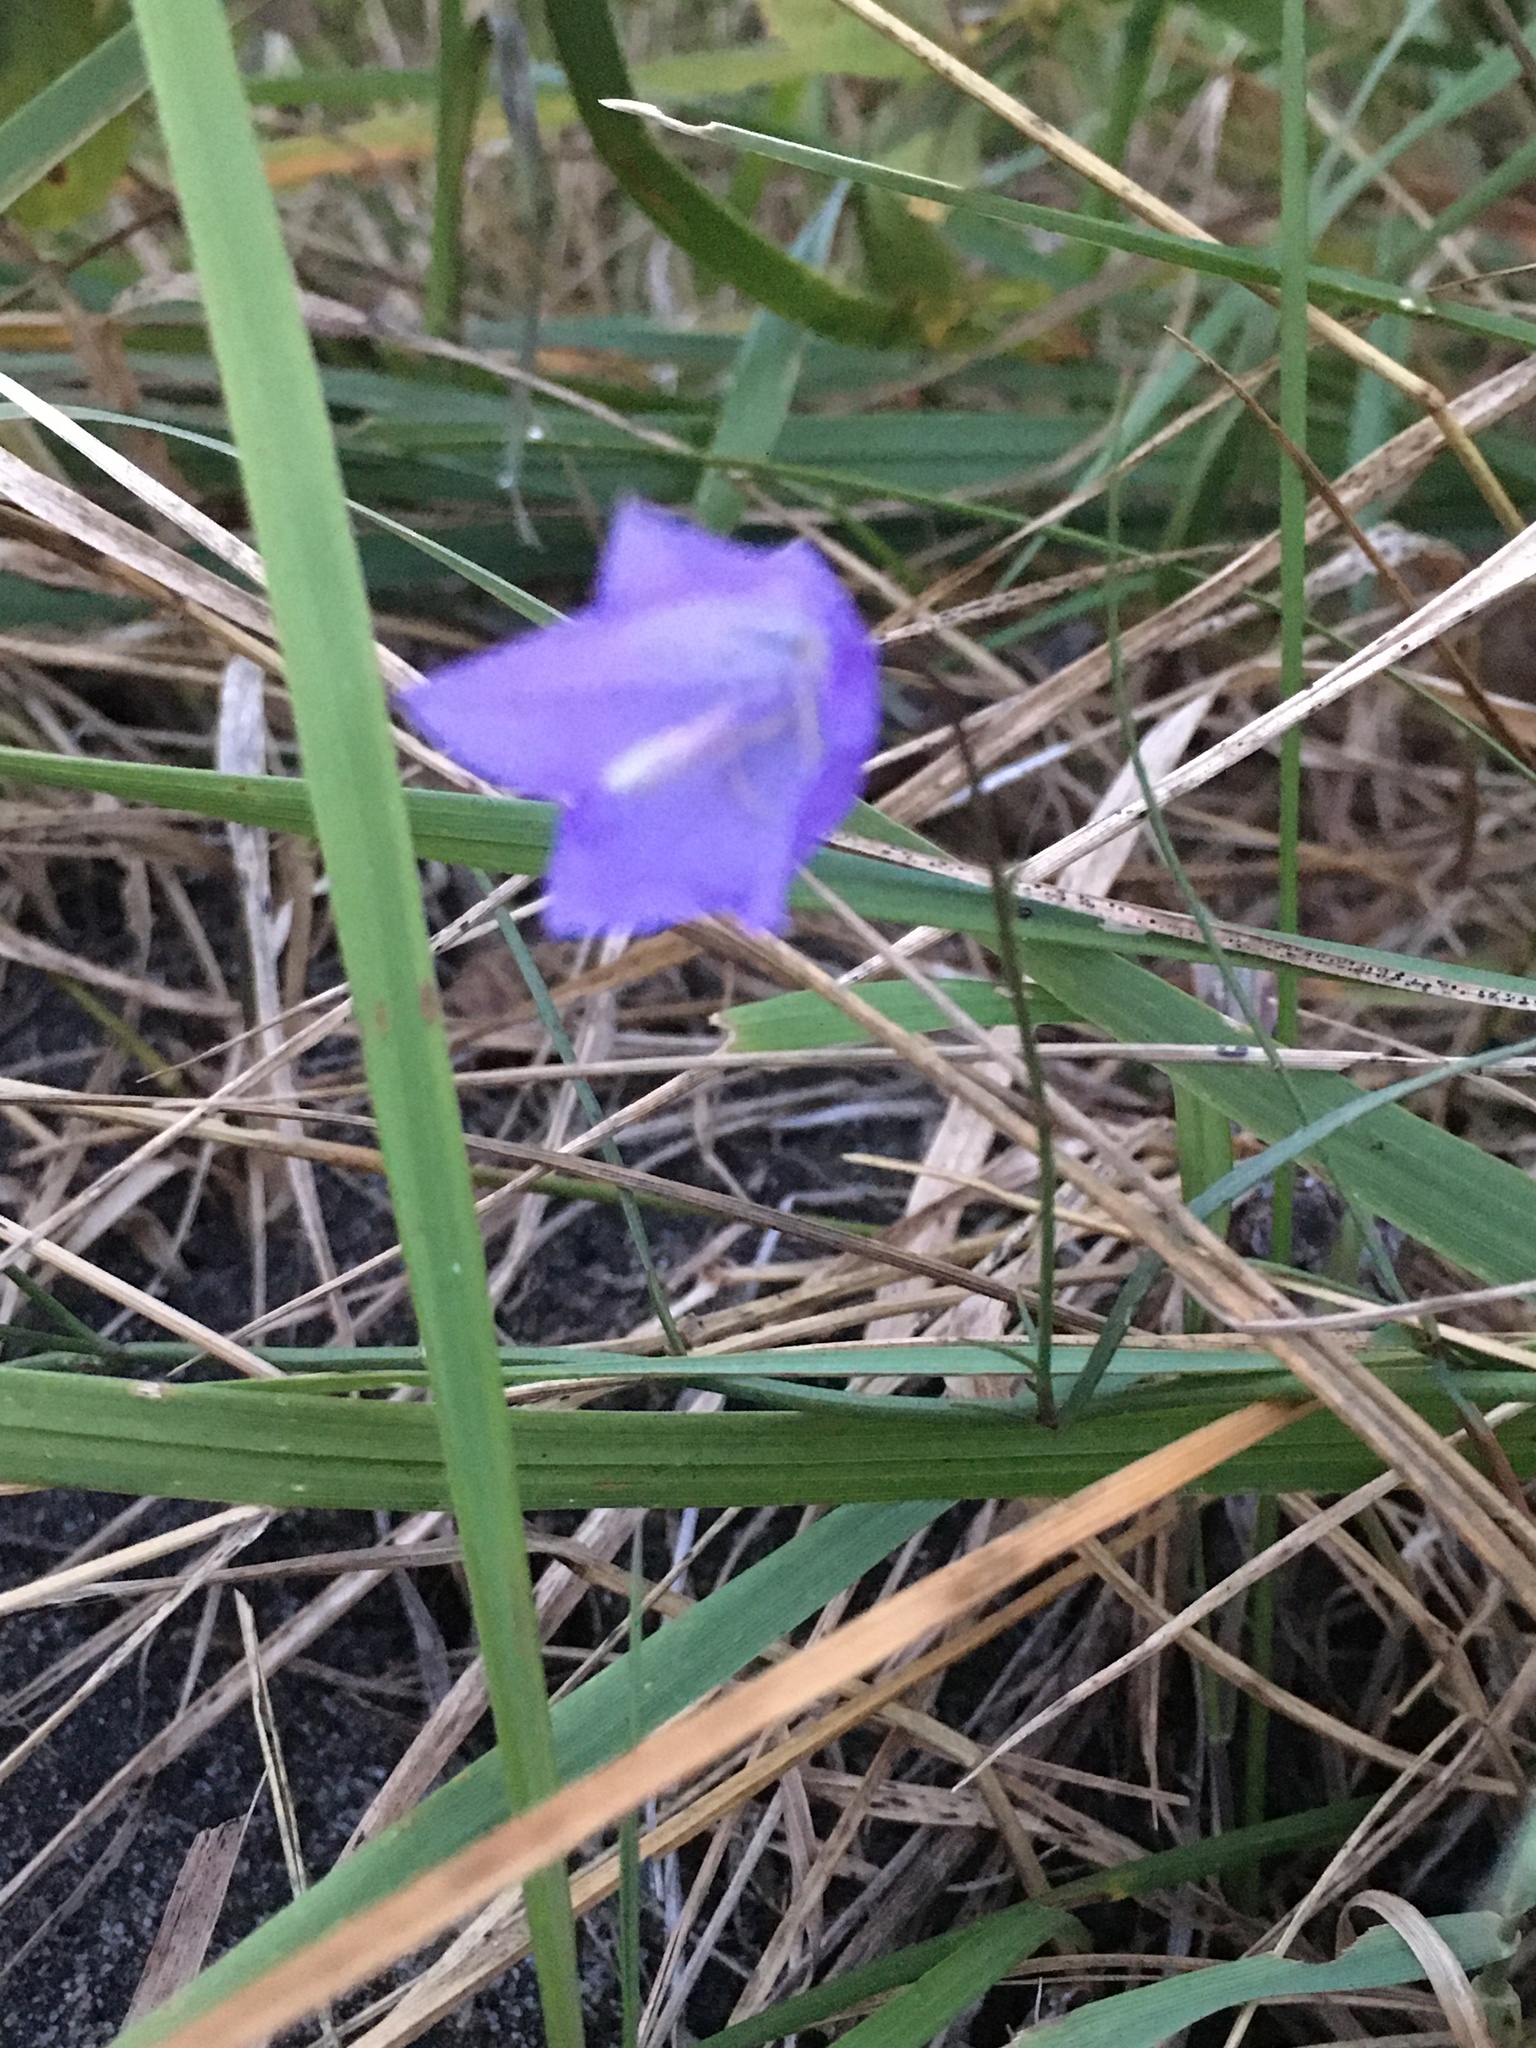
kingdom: Plantae
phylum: Tracheophyta
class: Magnoliopsida
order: Asterales
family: Campanulaceae
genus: Campanula
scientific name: Campanula alaskana
